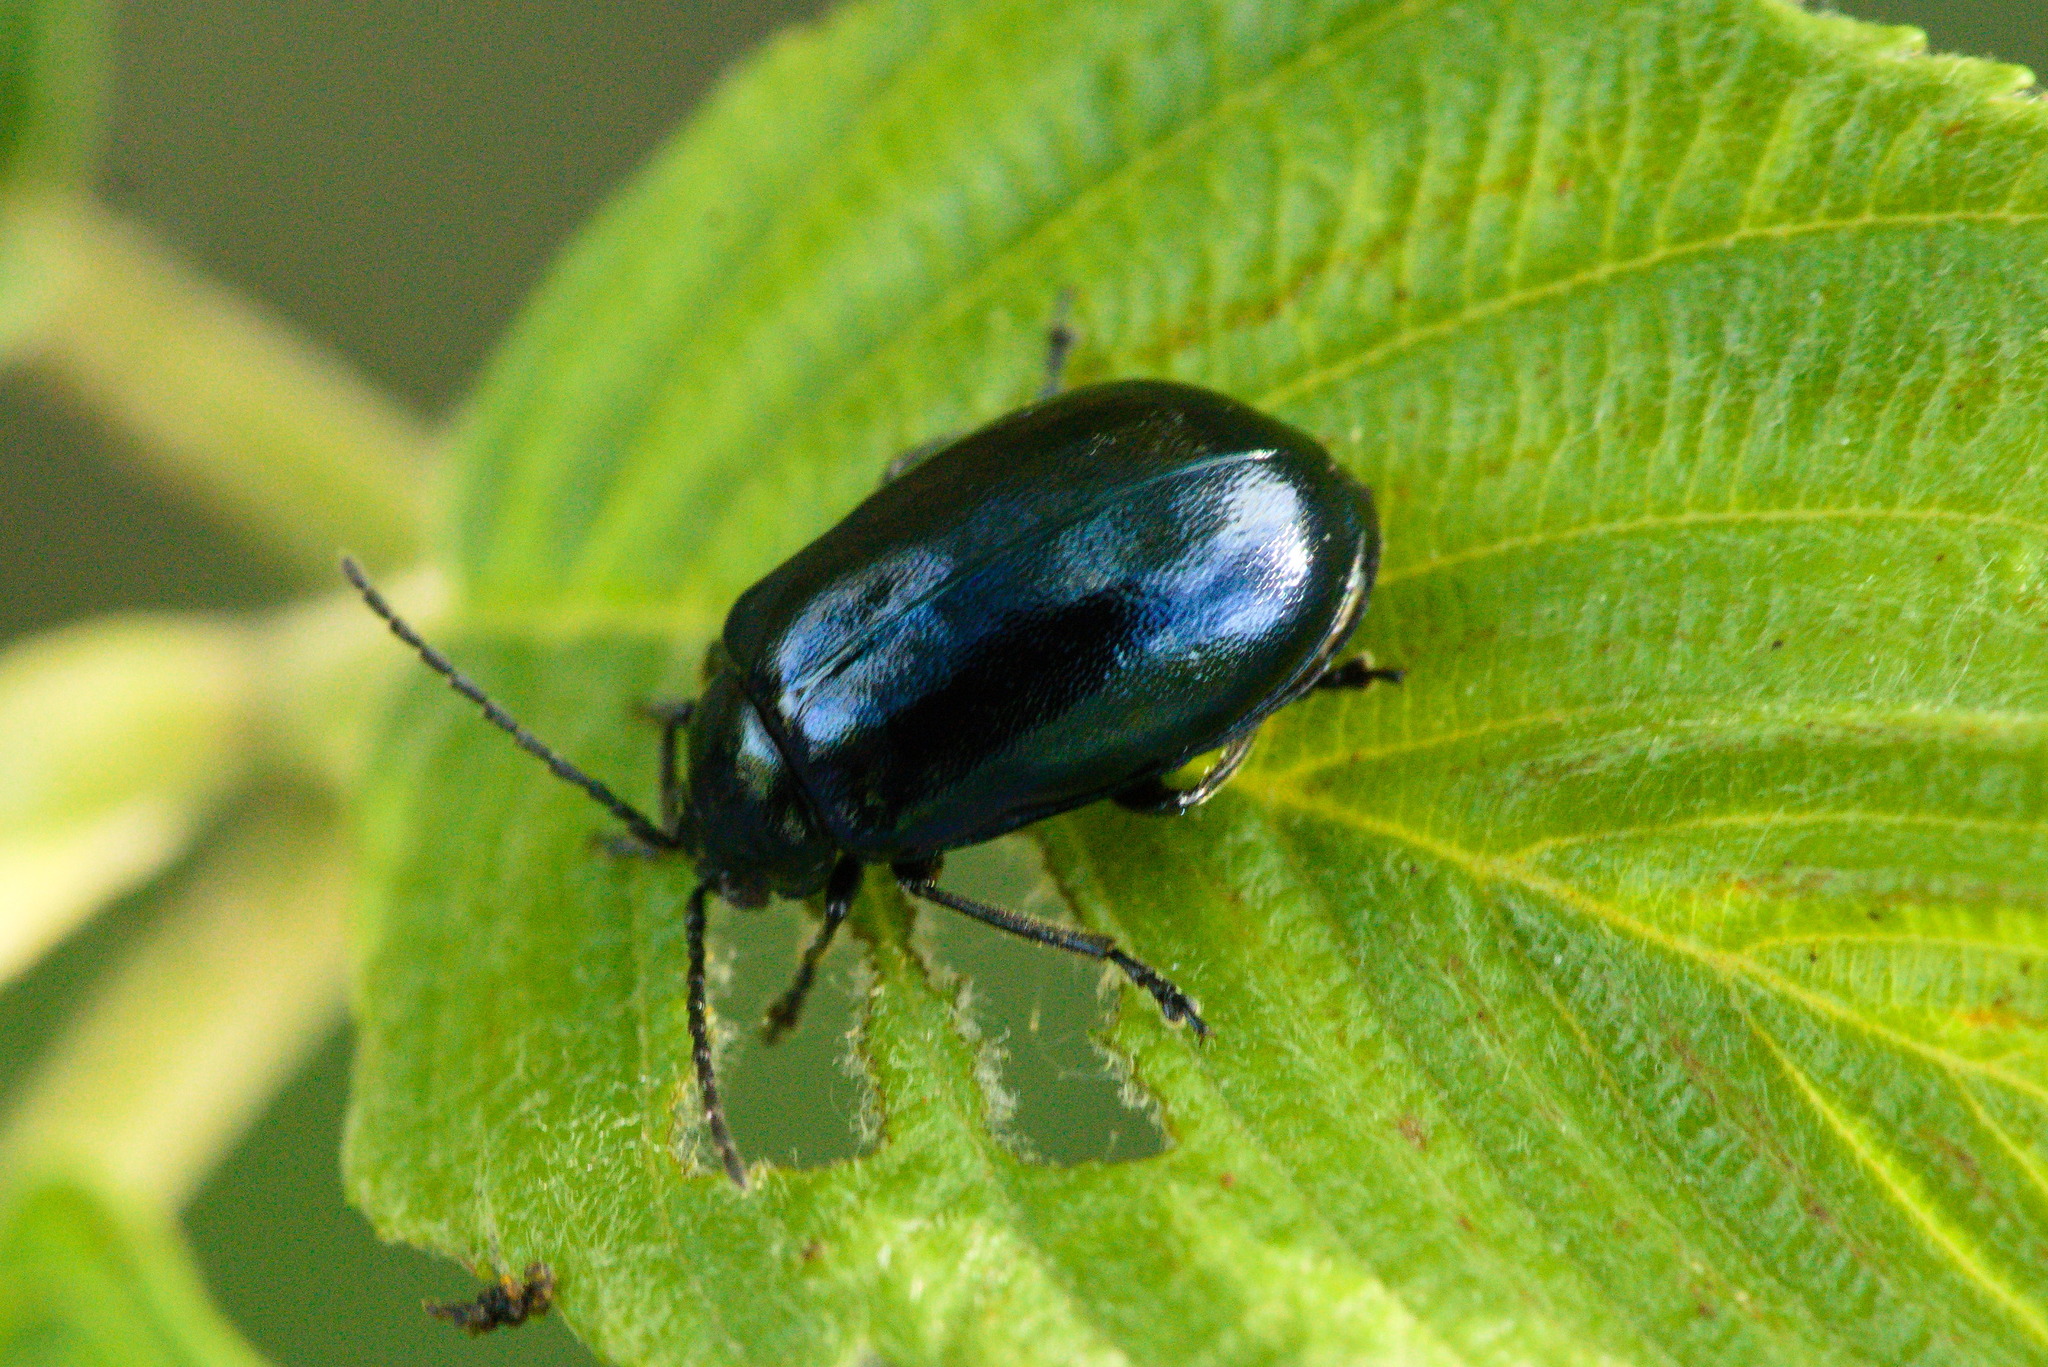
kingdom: Animalia
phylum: Arthropoda
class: Insecta
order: Coleoptera
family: Chrysomelidae
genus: Agelastica
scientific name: Agelastica alni
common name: Alder leaf beetle
